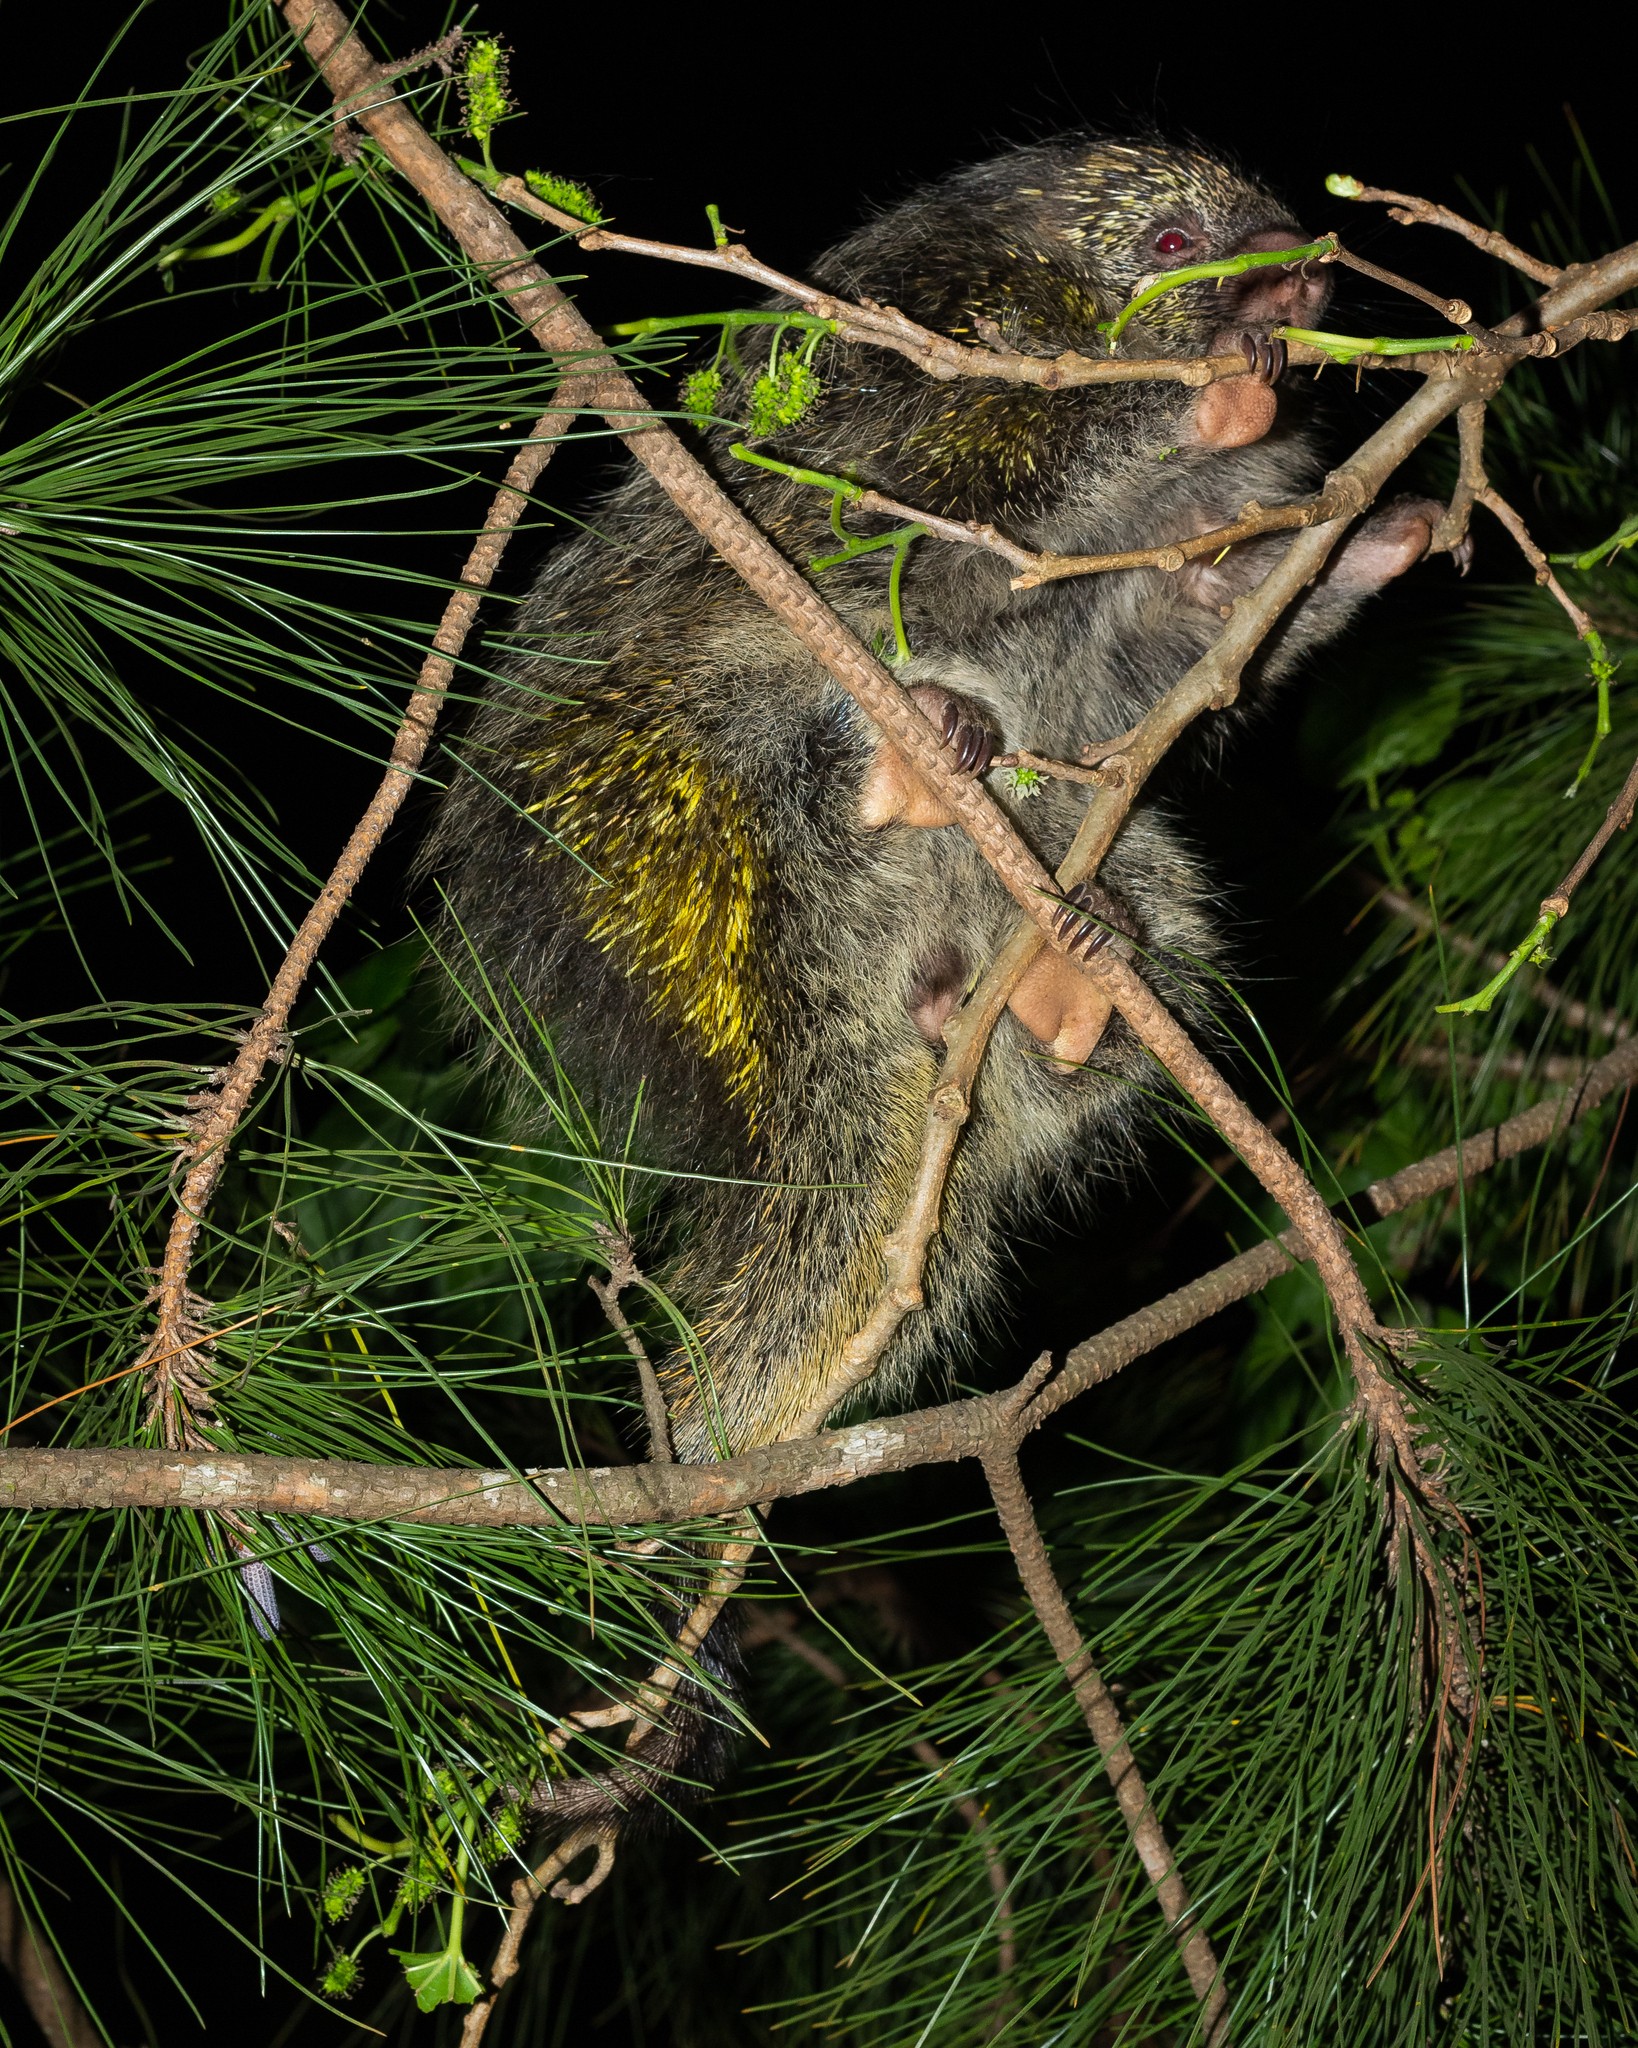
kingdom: Animalia
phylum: Chordata
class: Mammalia
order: Rodentia
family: Erethizontidae
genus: Sphiggurus
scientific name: Sphiggurus spinosus
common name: Paraguaian hairy dwarf porcupine
